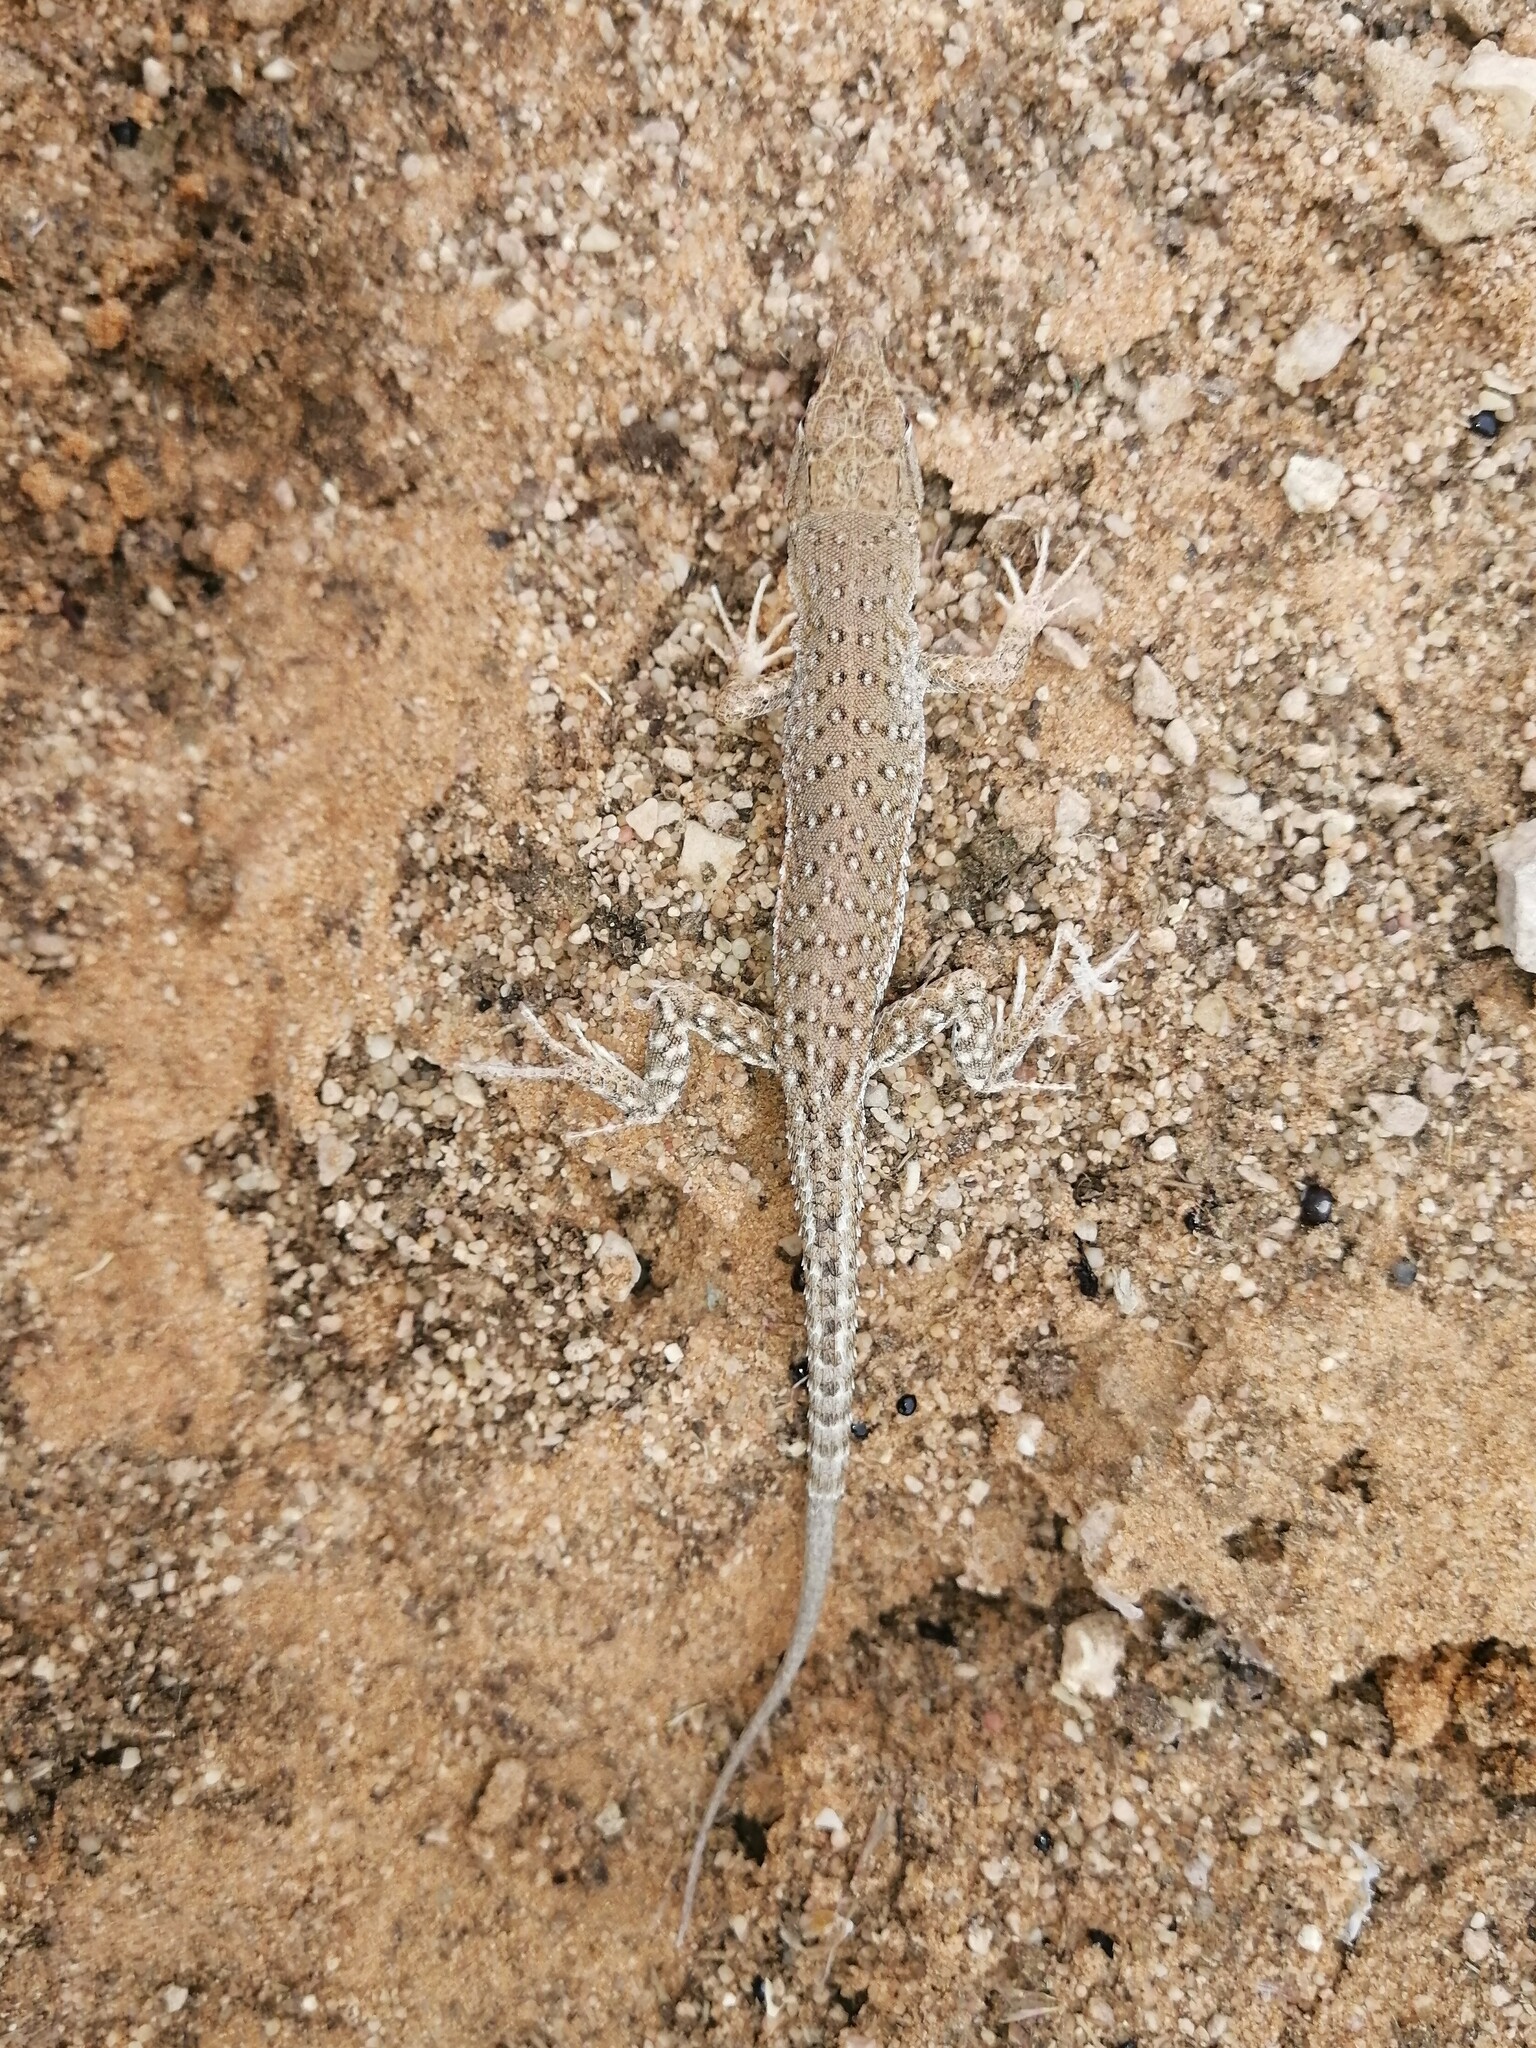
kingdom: Animalia
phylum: Chordata
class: Squamata
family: Lacertidae
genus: Mesalina
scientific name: Mesalina guttulata
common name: Desert lacerta
